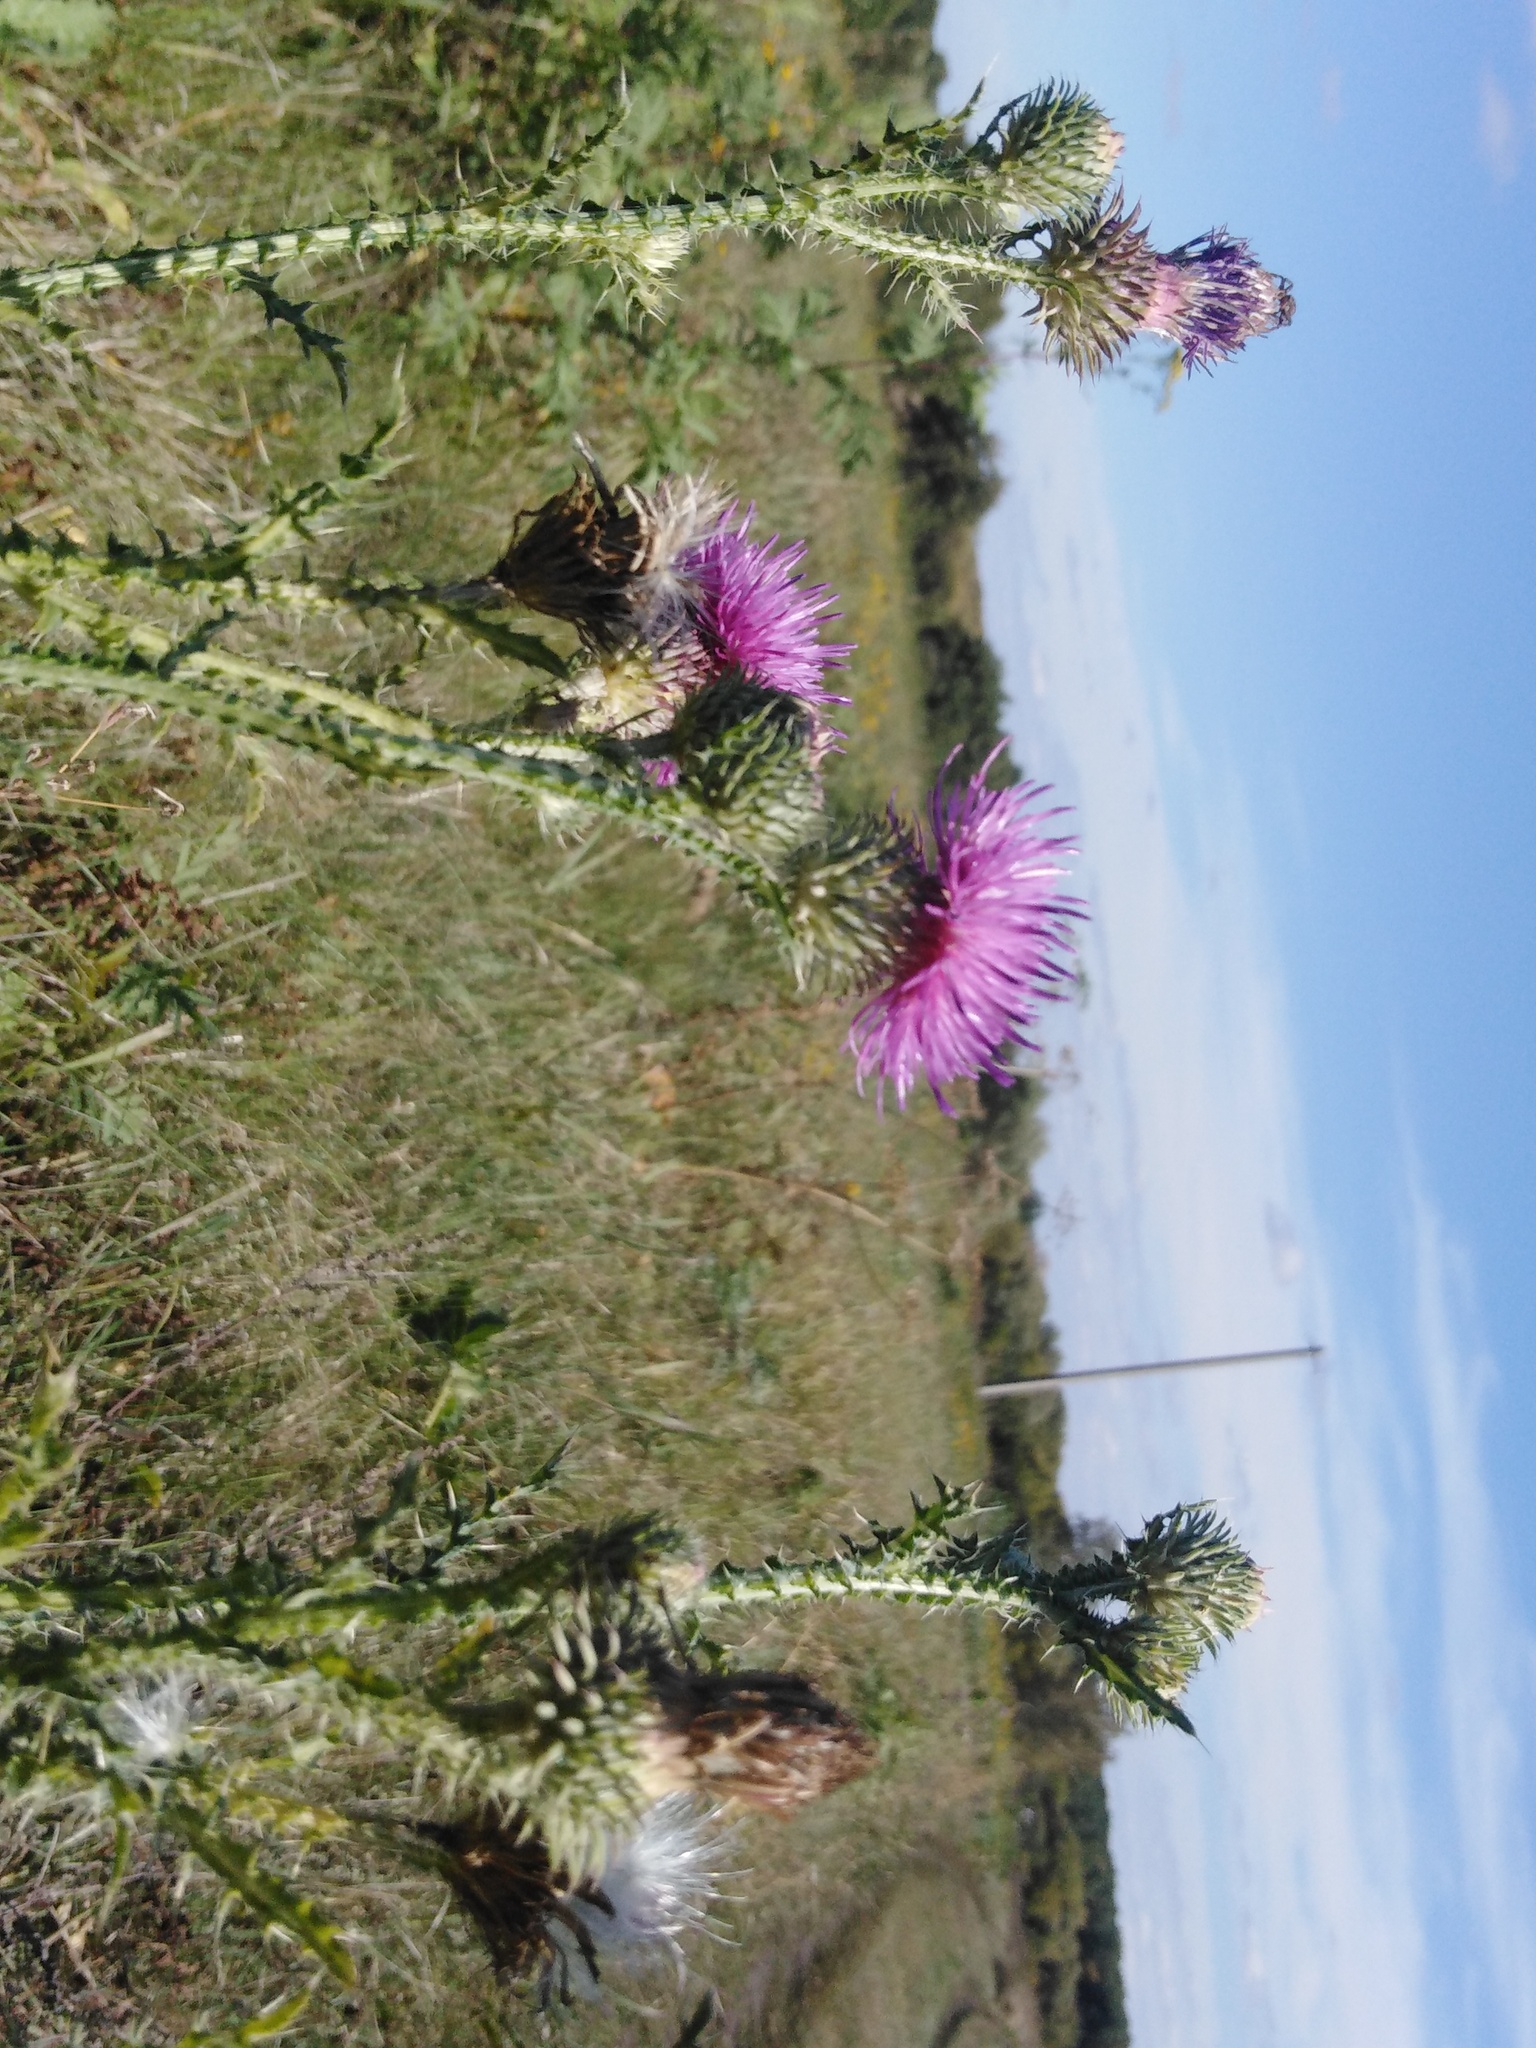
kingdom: Plantae
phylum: Tracheophyta
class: Magnoliopsida
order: Asterales
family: Asteraceae
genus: Carduus
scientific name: Carduus acanthoides
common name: Plumeless thistle
